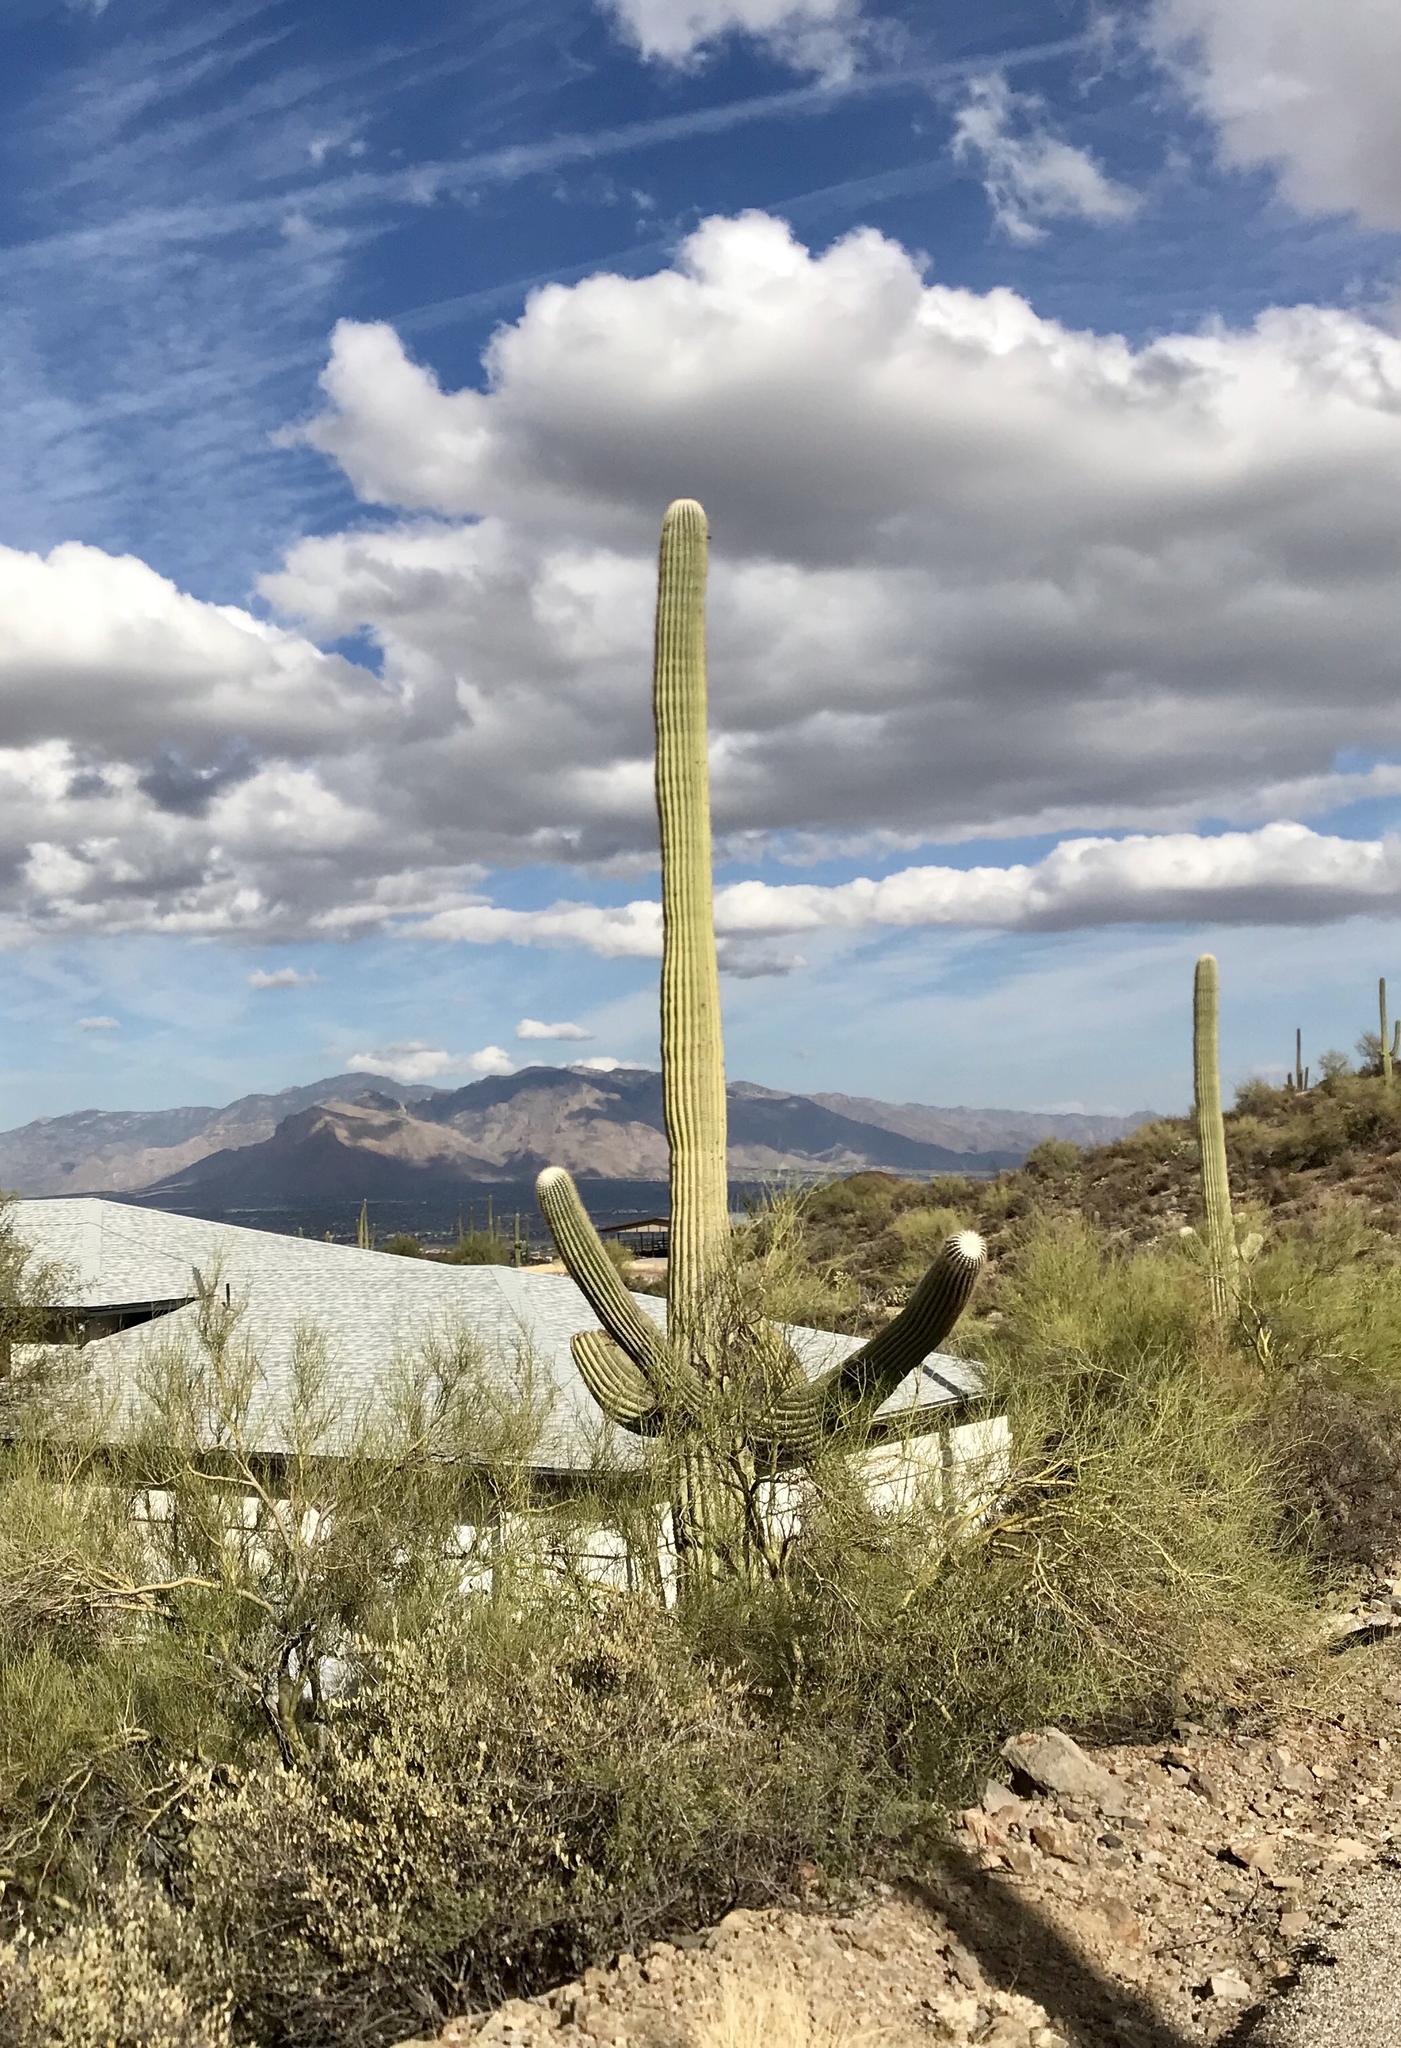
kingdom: Plantae
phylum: Tracheophyta
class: Magnoliopsida
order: Caryophyllales
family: Cactaceae
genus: Carnegiea
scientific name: Carnegiea gigantea
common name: Saguaro
